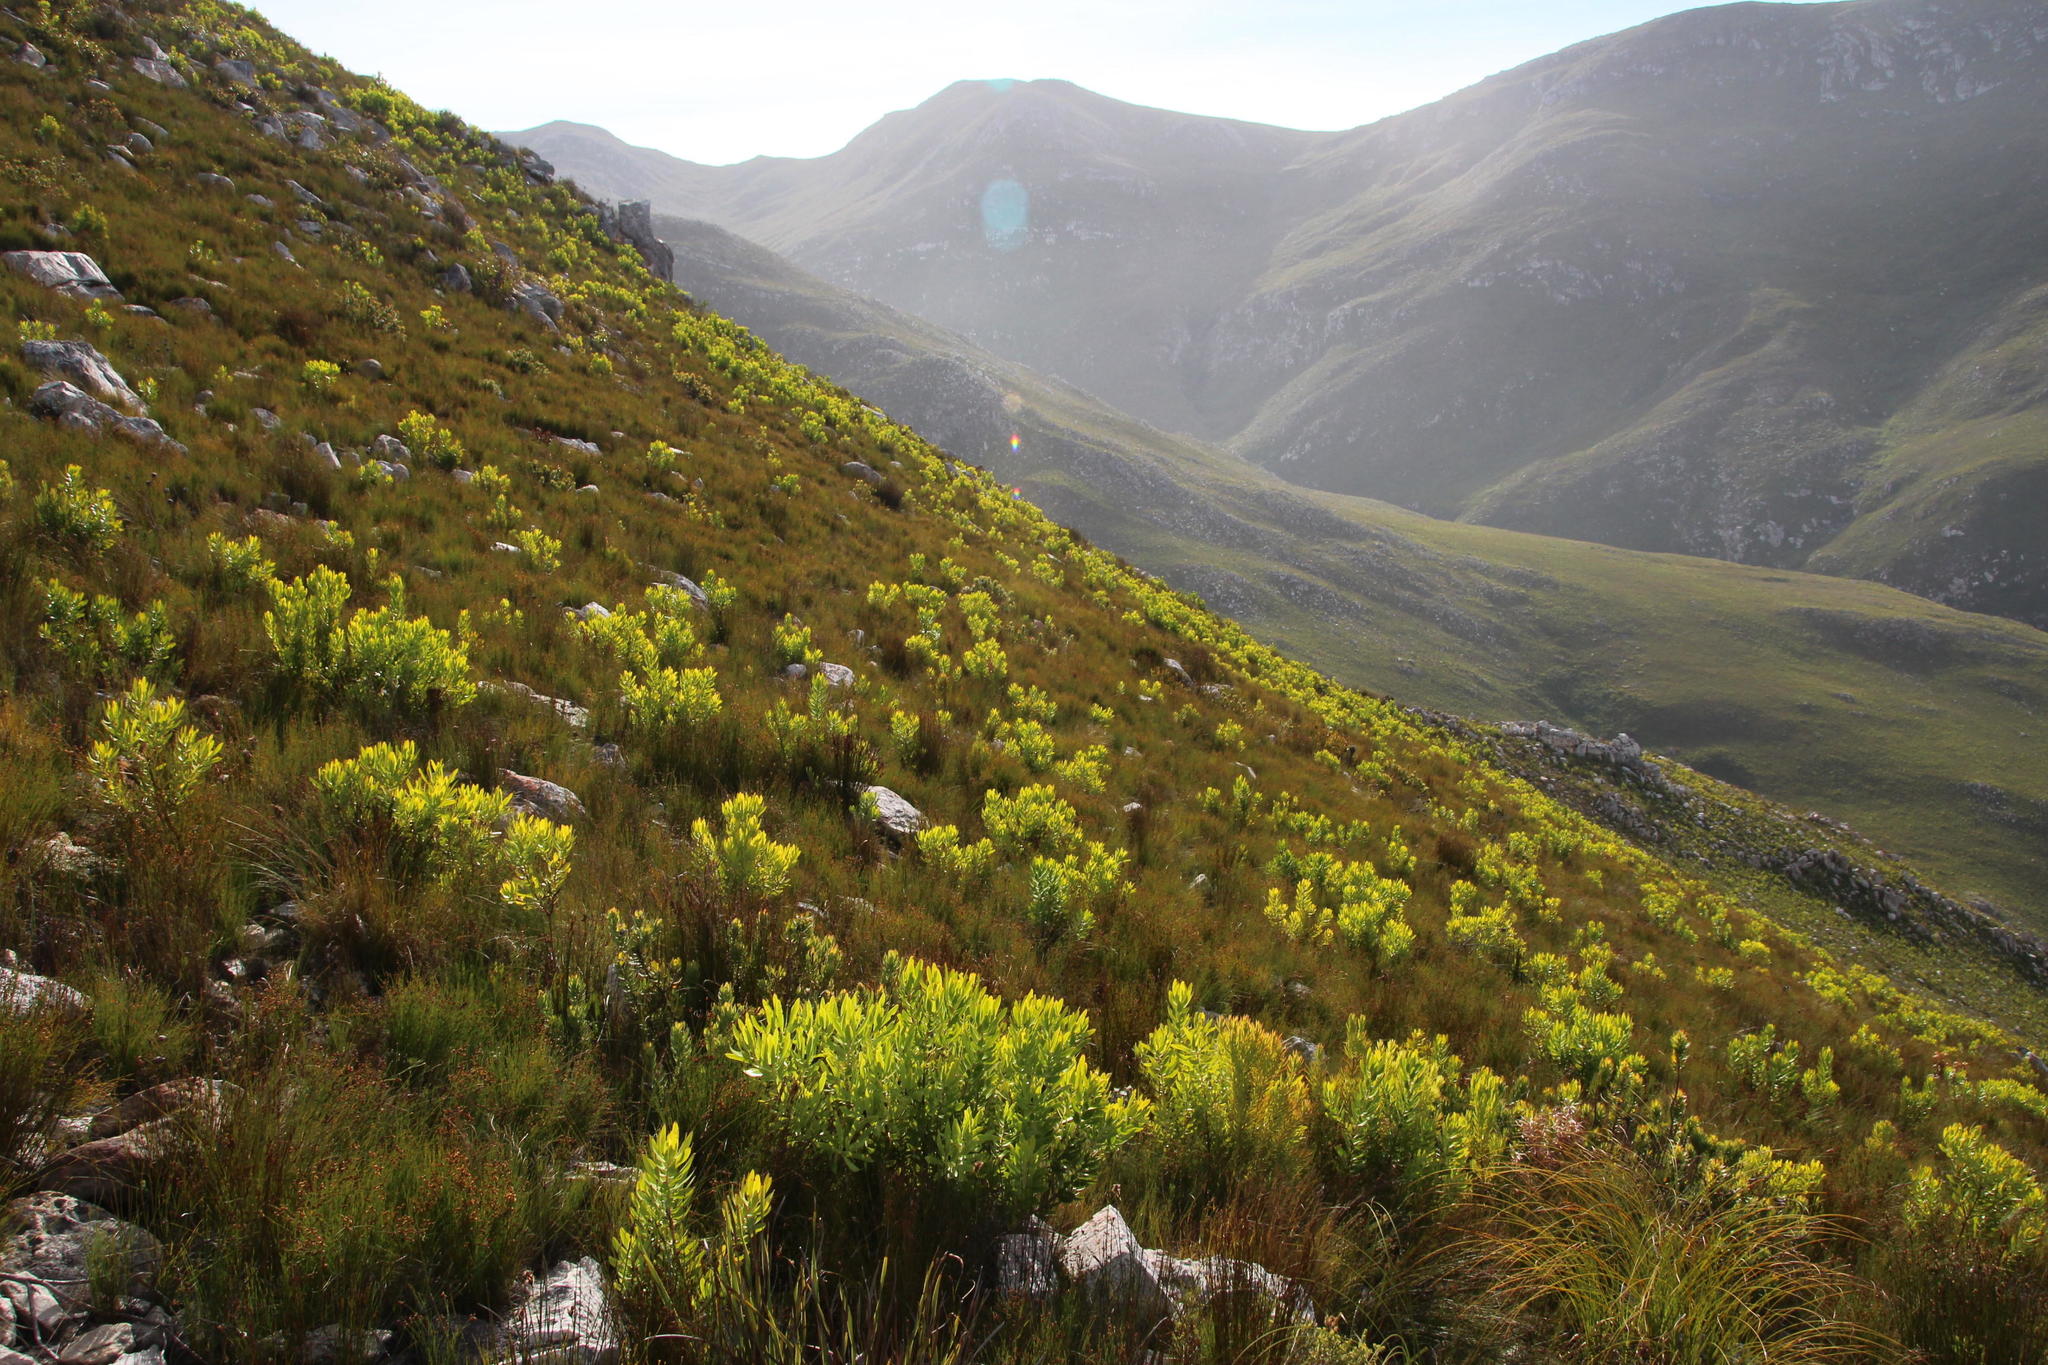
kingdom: Plantae
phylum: Tracheophyta
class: Magnoliopsida
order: Proteales
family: Proteaceae
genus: Leucadendron
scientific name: Leucadendron microcephalum
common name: Oilbract conebush
